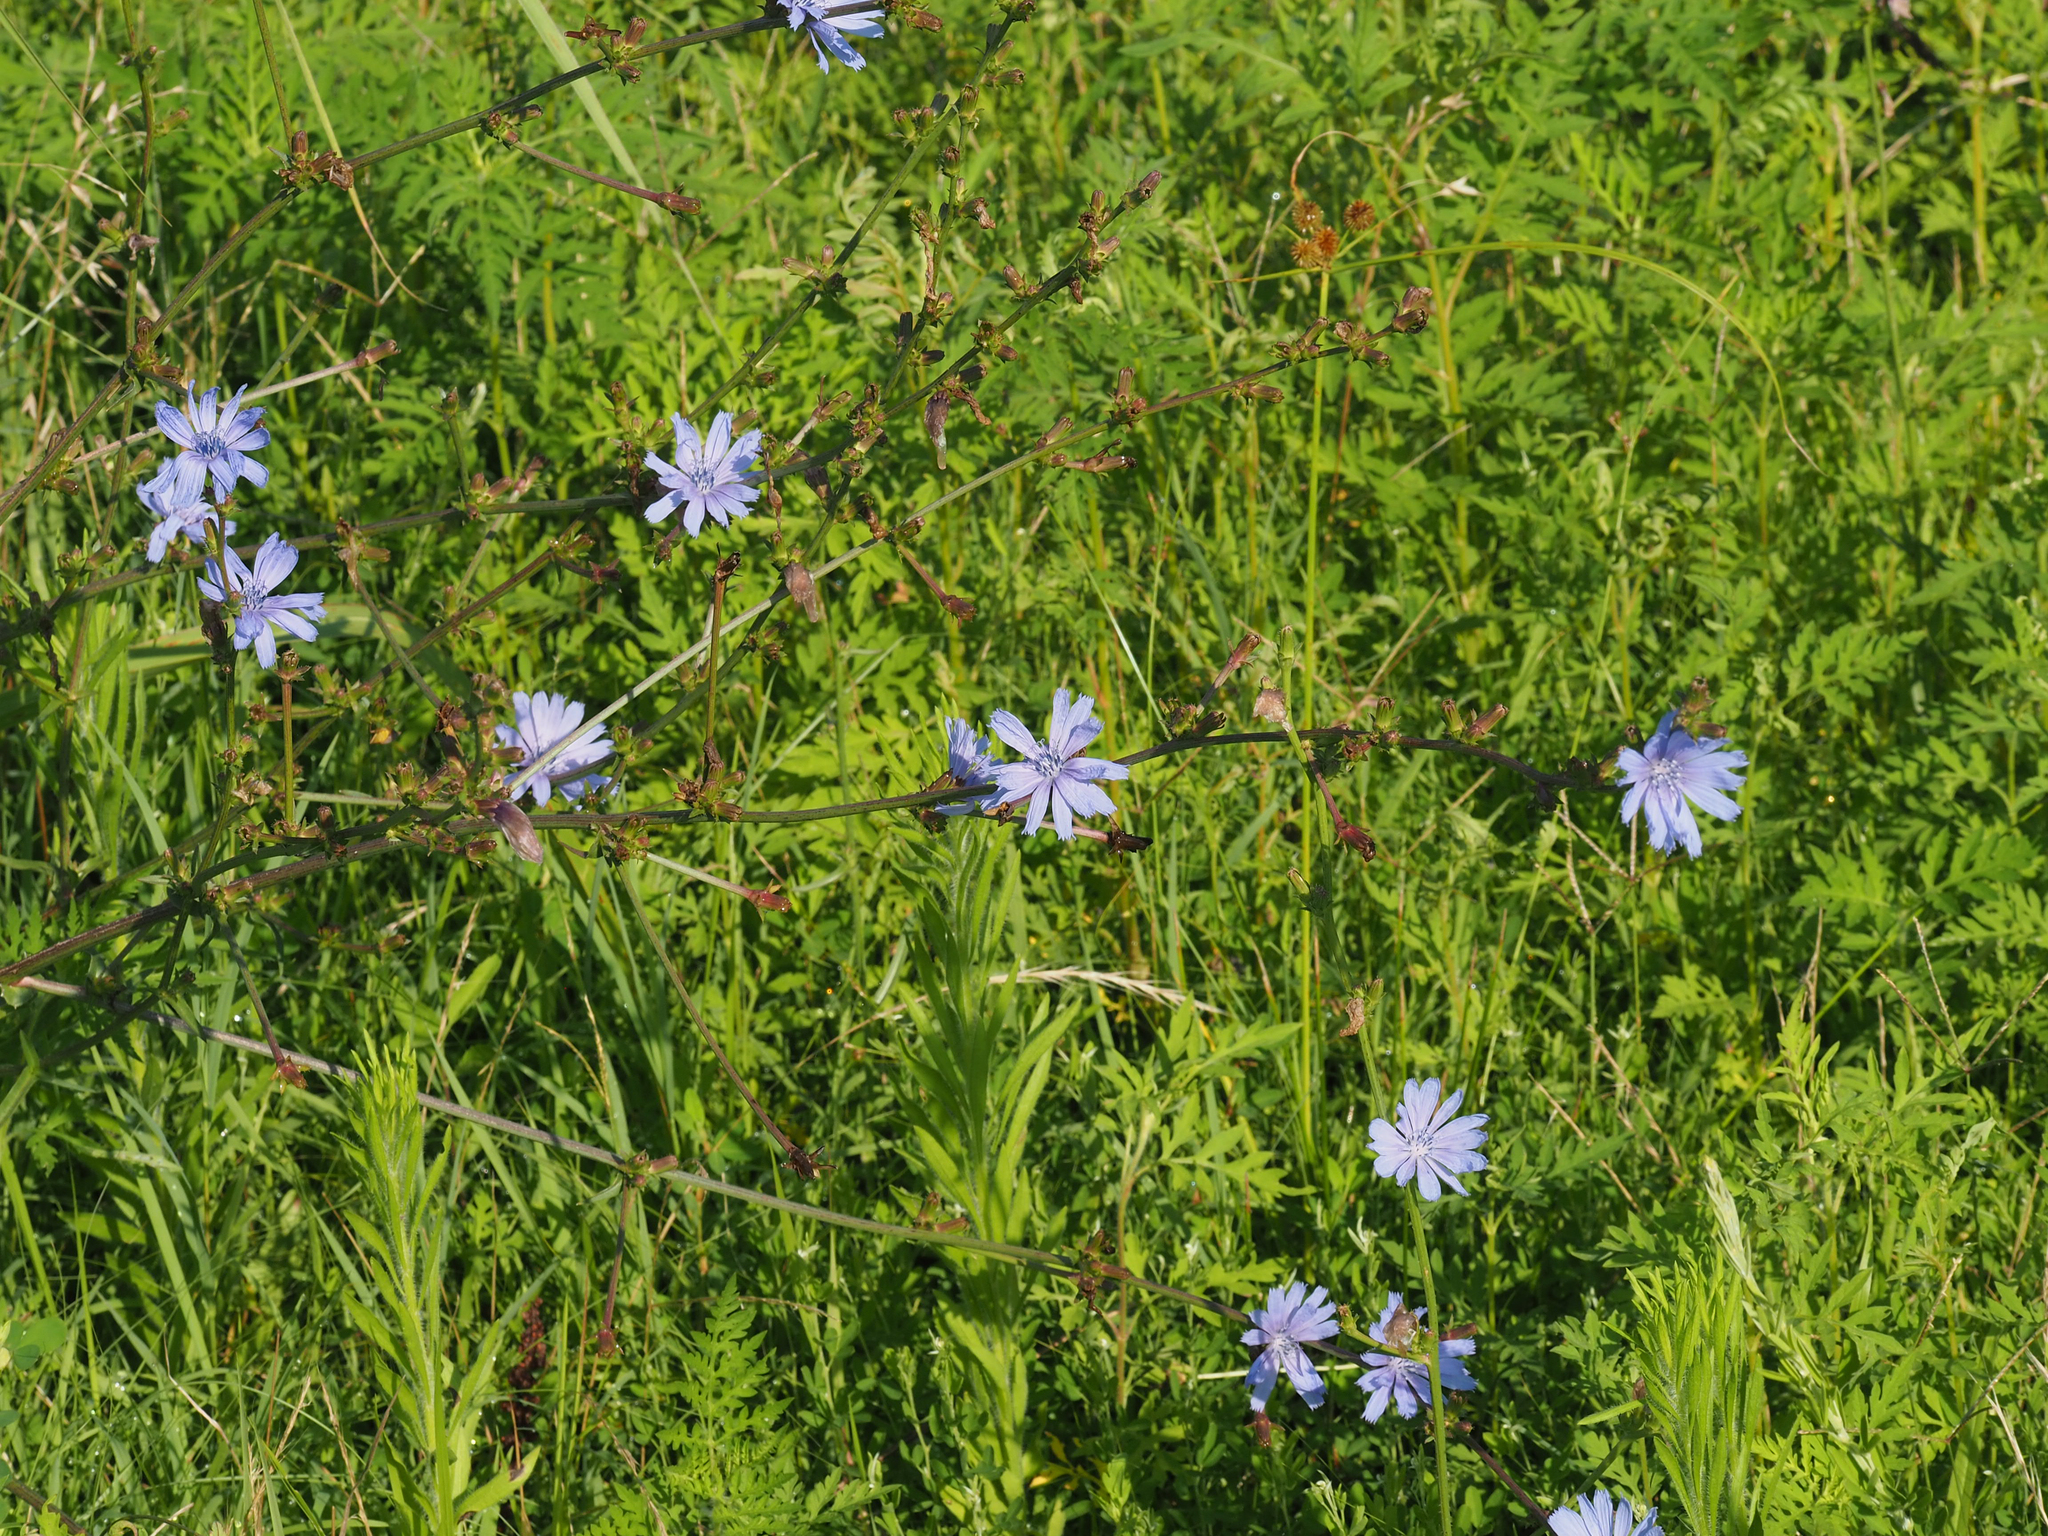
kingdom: Plantae
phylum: Tracheophyta
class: Magnoliopsida
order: Asterales
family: Asteraceae
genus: Cichorium
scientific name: Cichorium intybus
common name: Chicory
